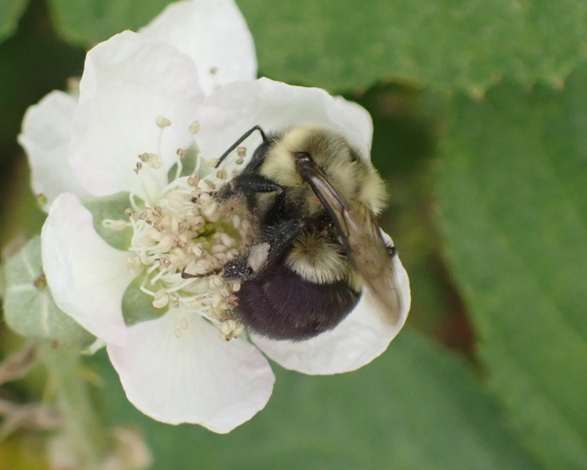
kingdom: Animalia
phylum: Arthropoda
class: Insecta
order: Hymenoptera
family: Apidae
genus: Bombus
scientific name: Bombus impatiens
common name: Common eastern bumble bee
